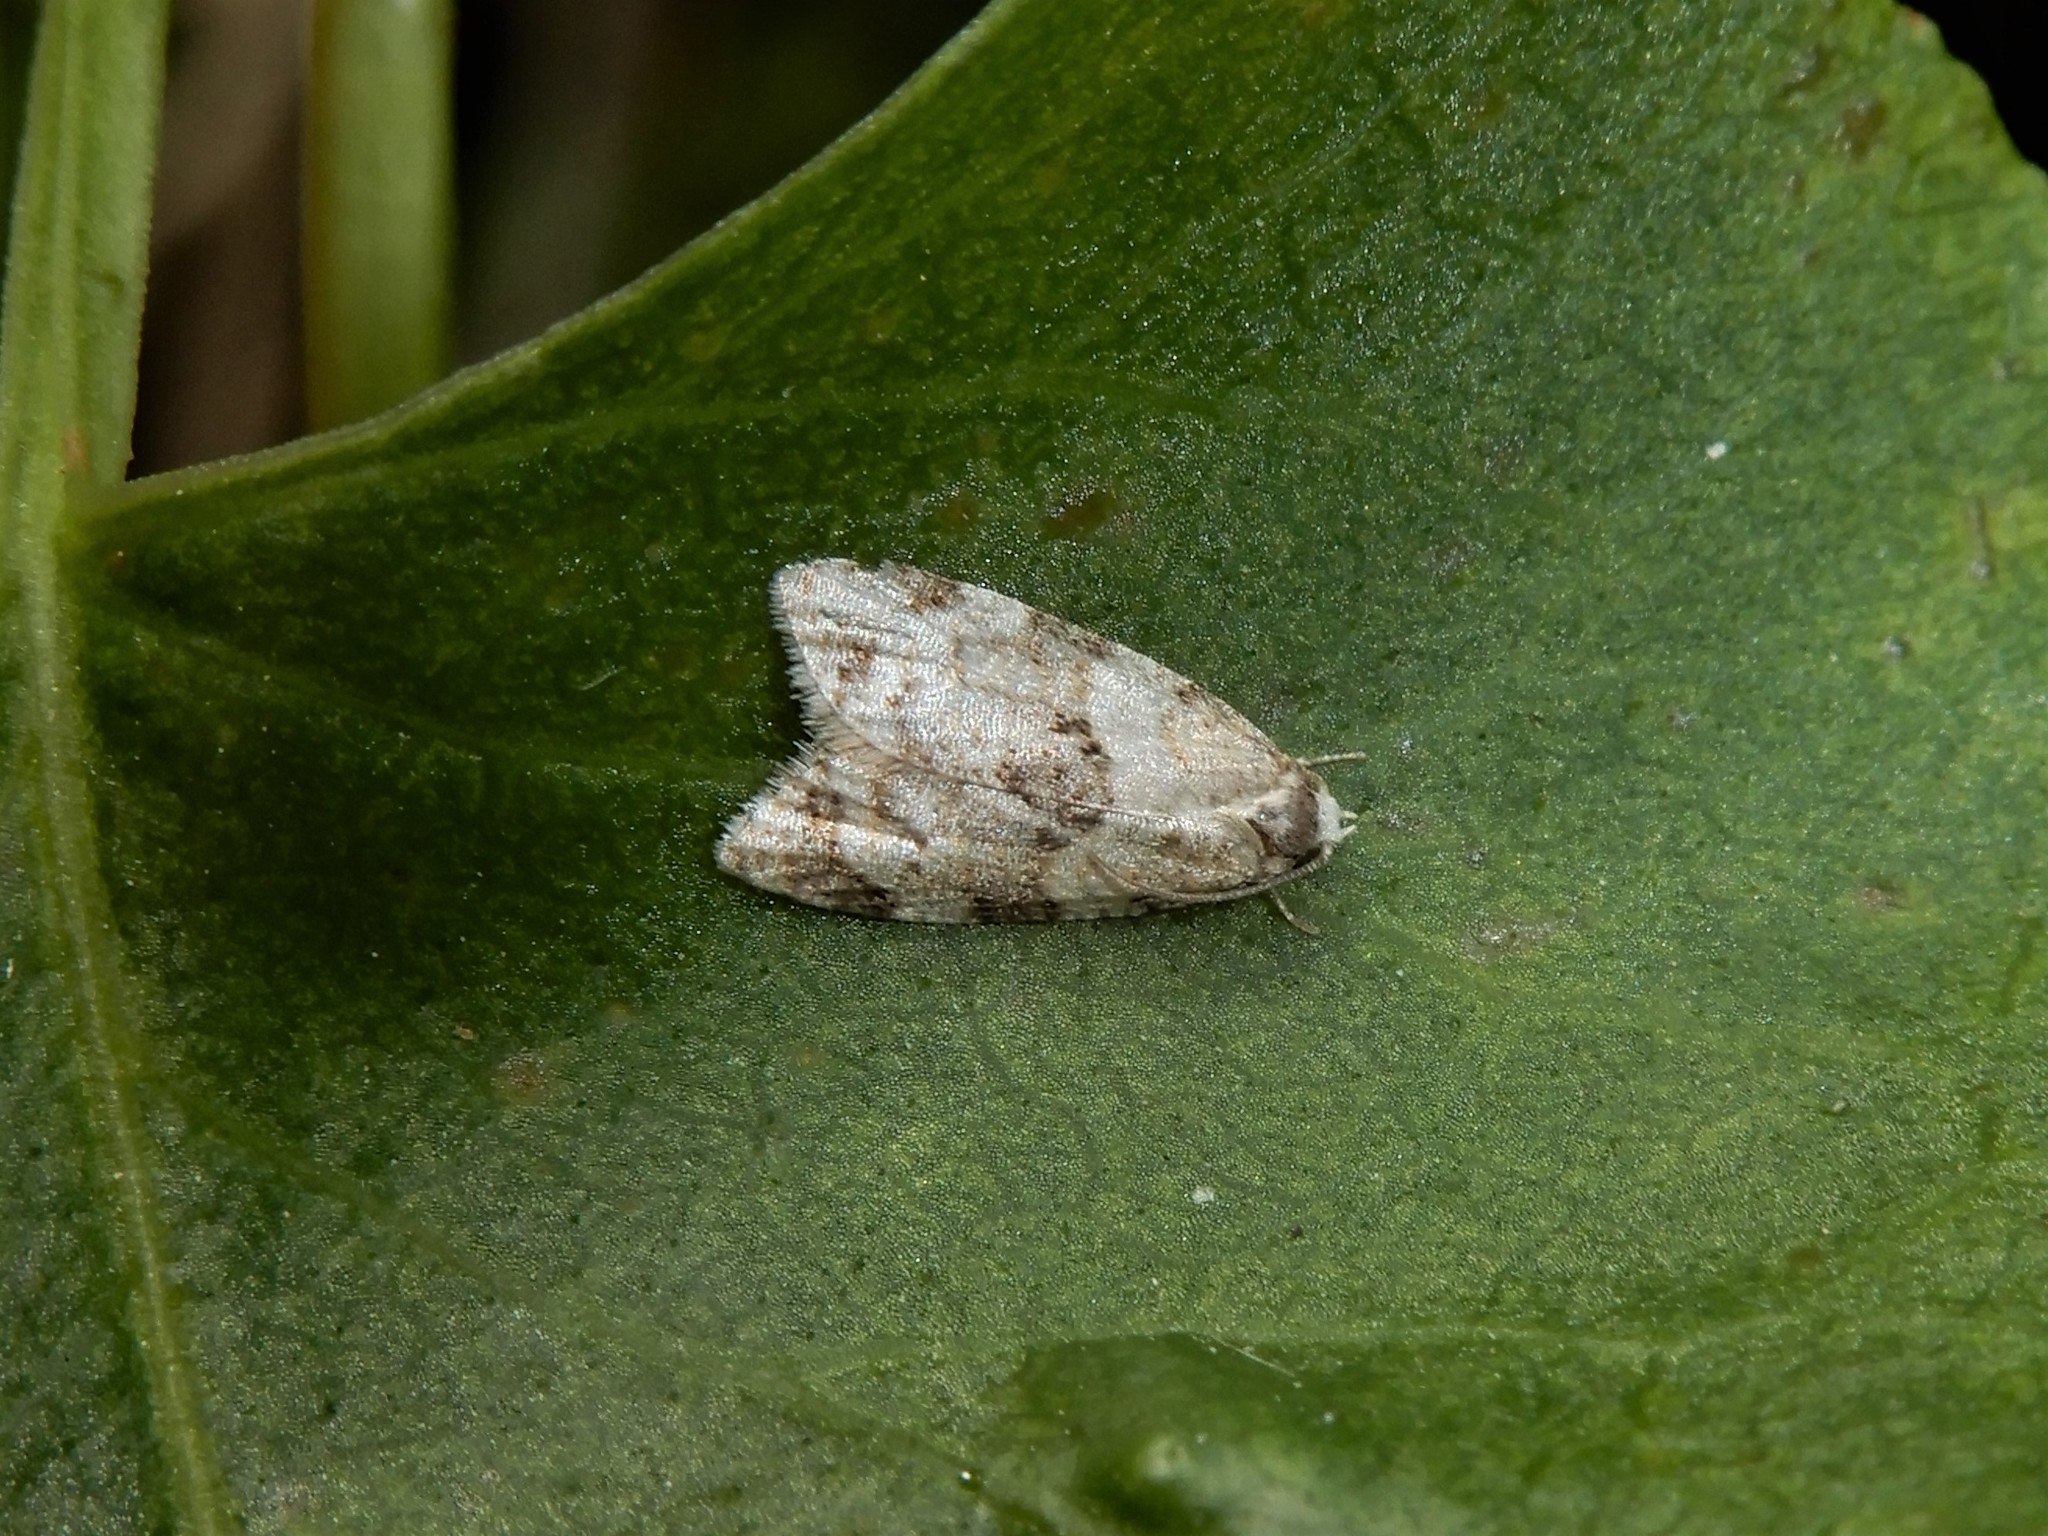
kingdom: Animalia
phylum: Arthropoda
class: Insecta
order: Lepidoptera
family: Tortricidae
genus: Dipterina
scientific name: Dipterina imbriferana
